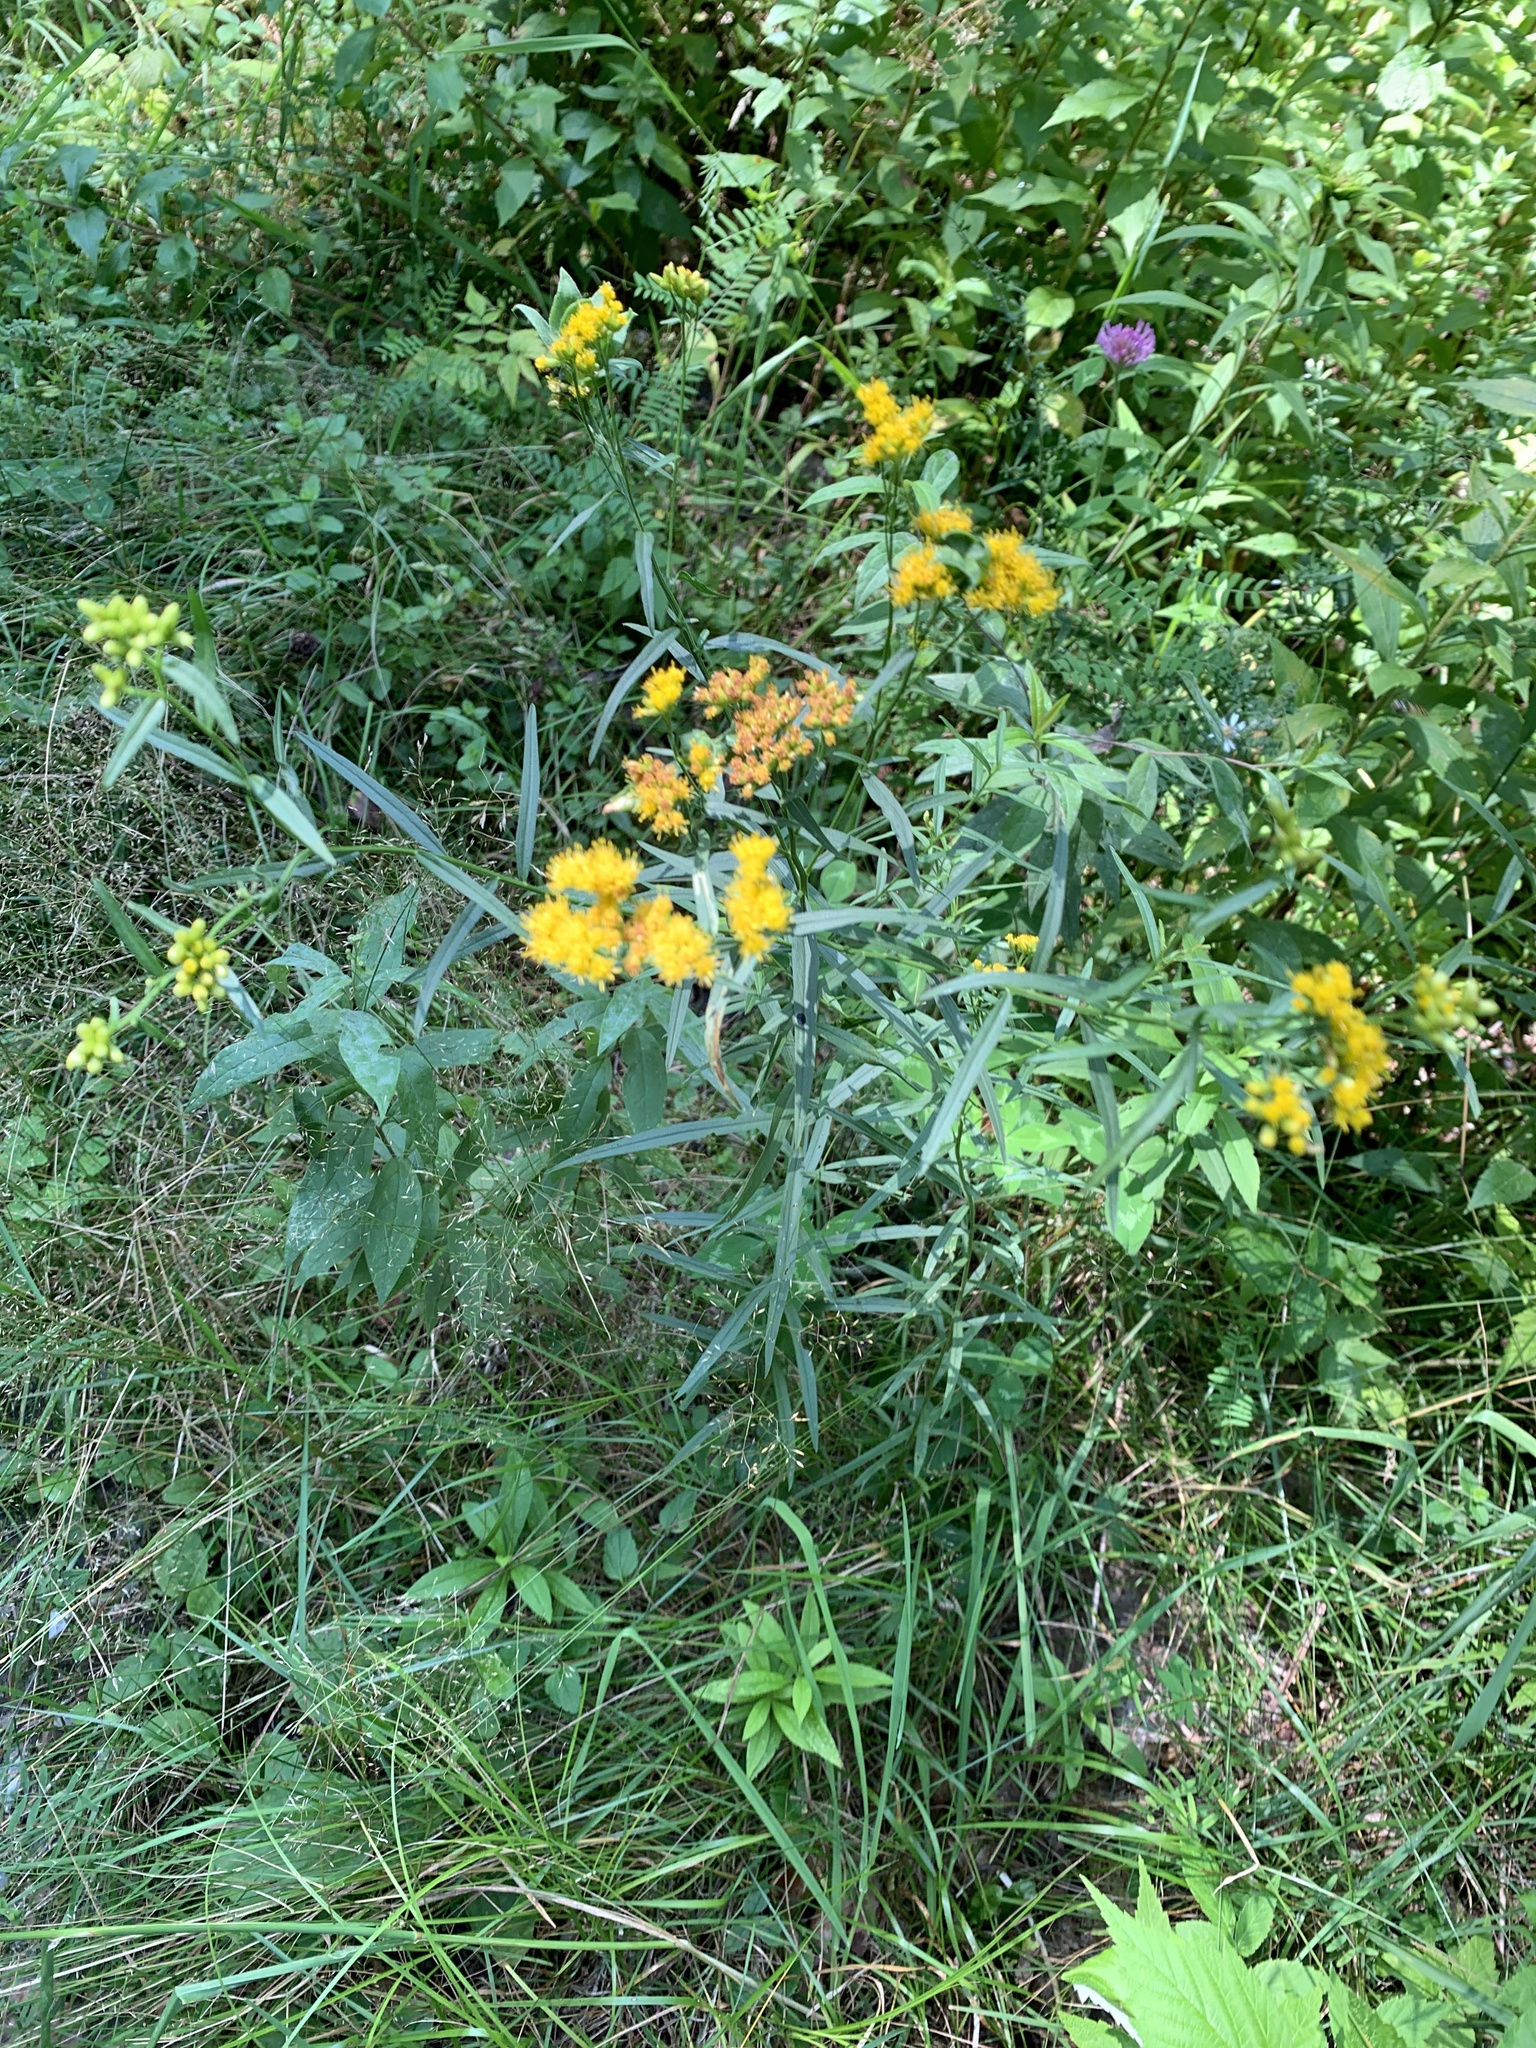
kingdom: Plantae
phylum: Tracheophyta
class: Magnoliopsida
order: Asterales
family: Asteraceae
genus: Euthamia
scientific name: Euthamia graminifolia
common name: Common goldentop
